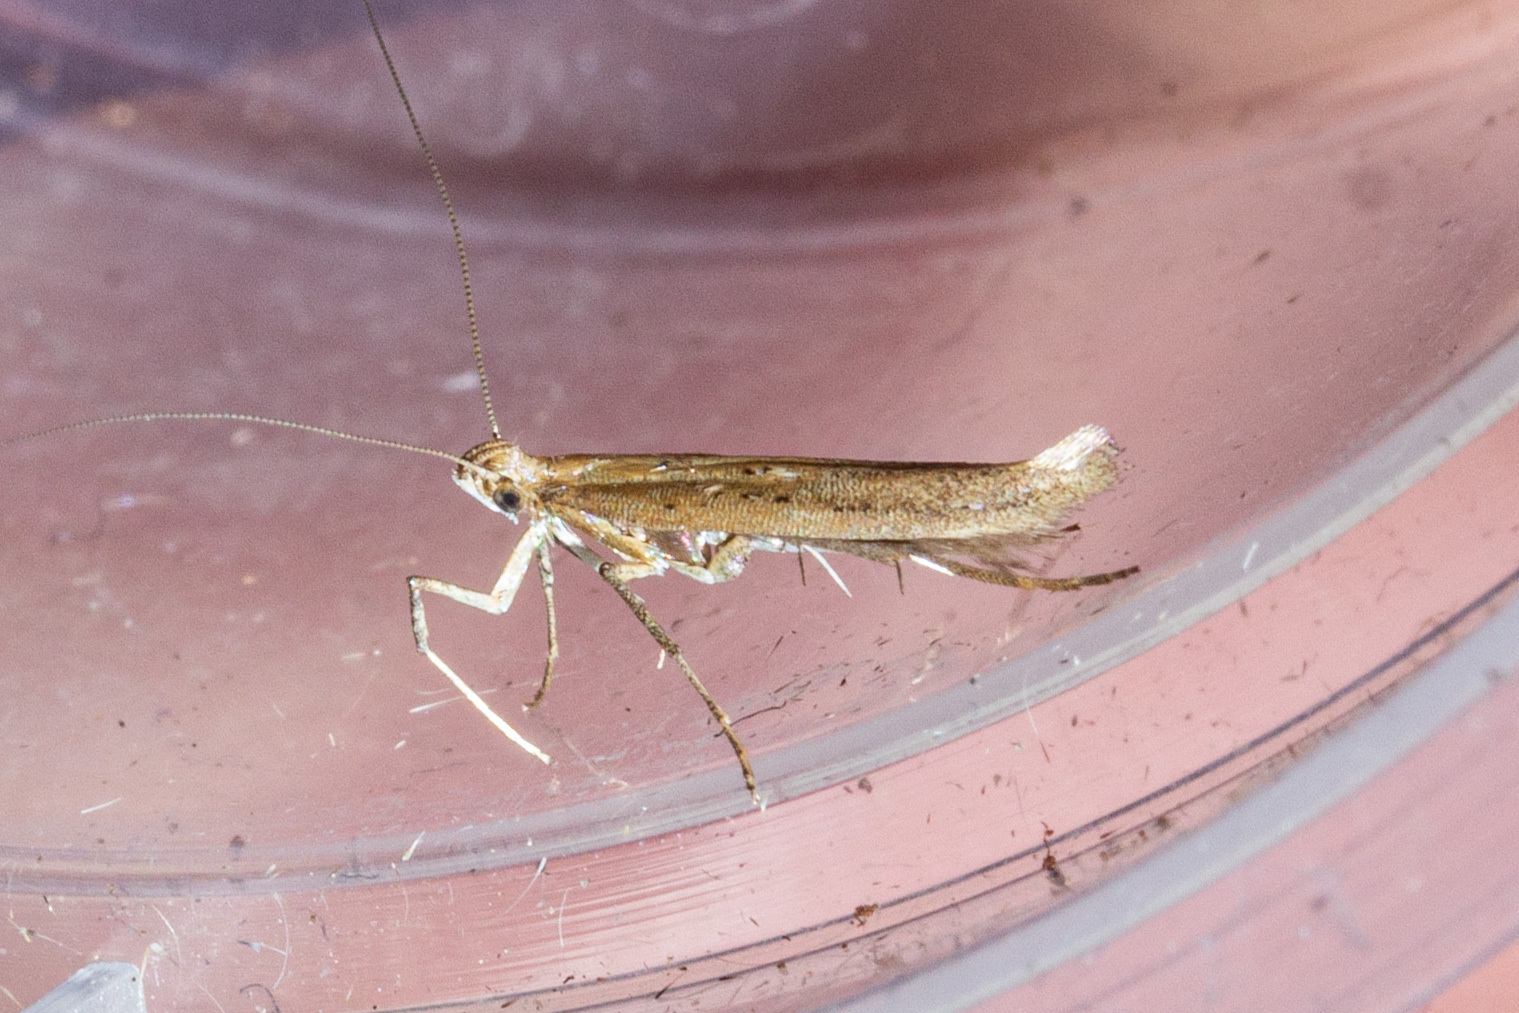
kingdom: Animalia
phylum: Arthropoda
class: Insecta
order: Lepidoptera
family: Gracillariidae
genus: Caloptilia
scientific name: Caloptilia elaeas
